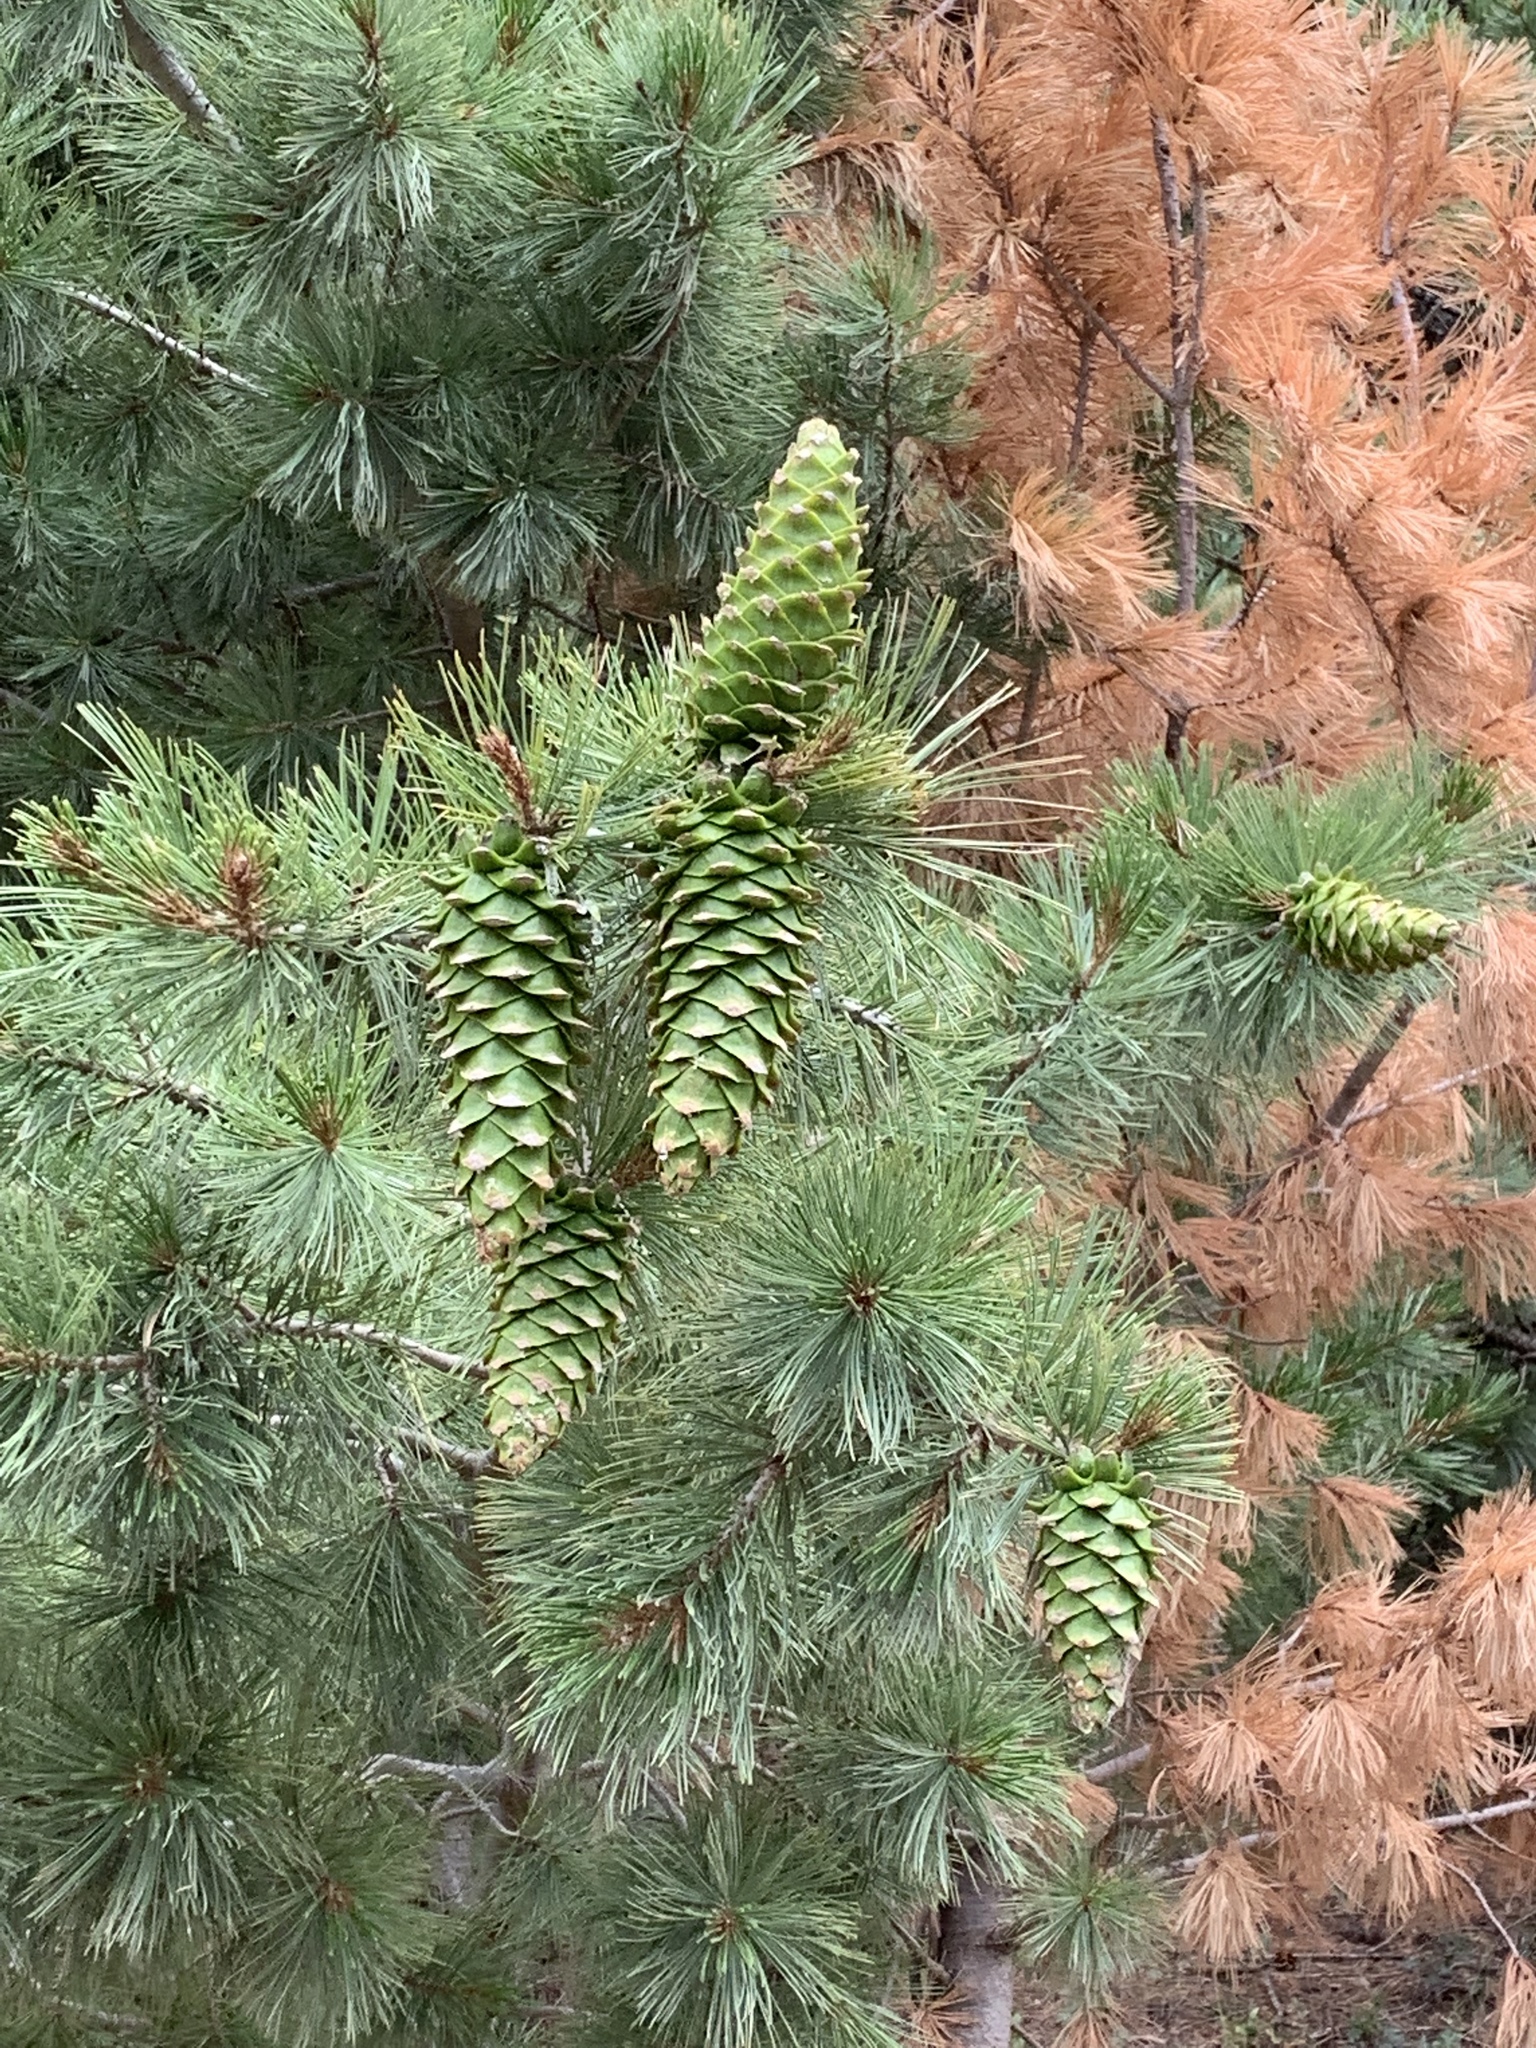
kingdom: Plantae
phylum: Tracheophyta
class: Pinopsida
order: Pinales
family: Pinaceae
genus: Pinus
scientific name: Pinus strobiformis
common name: Southwestern white pine
